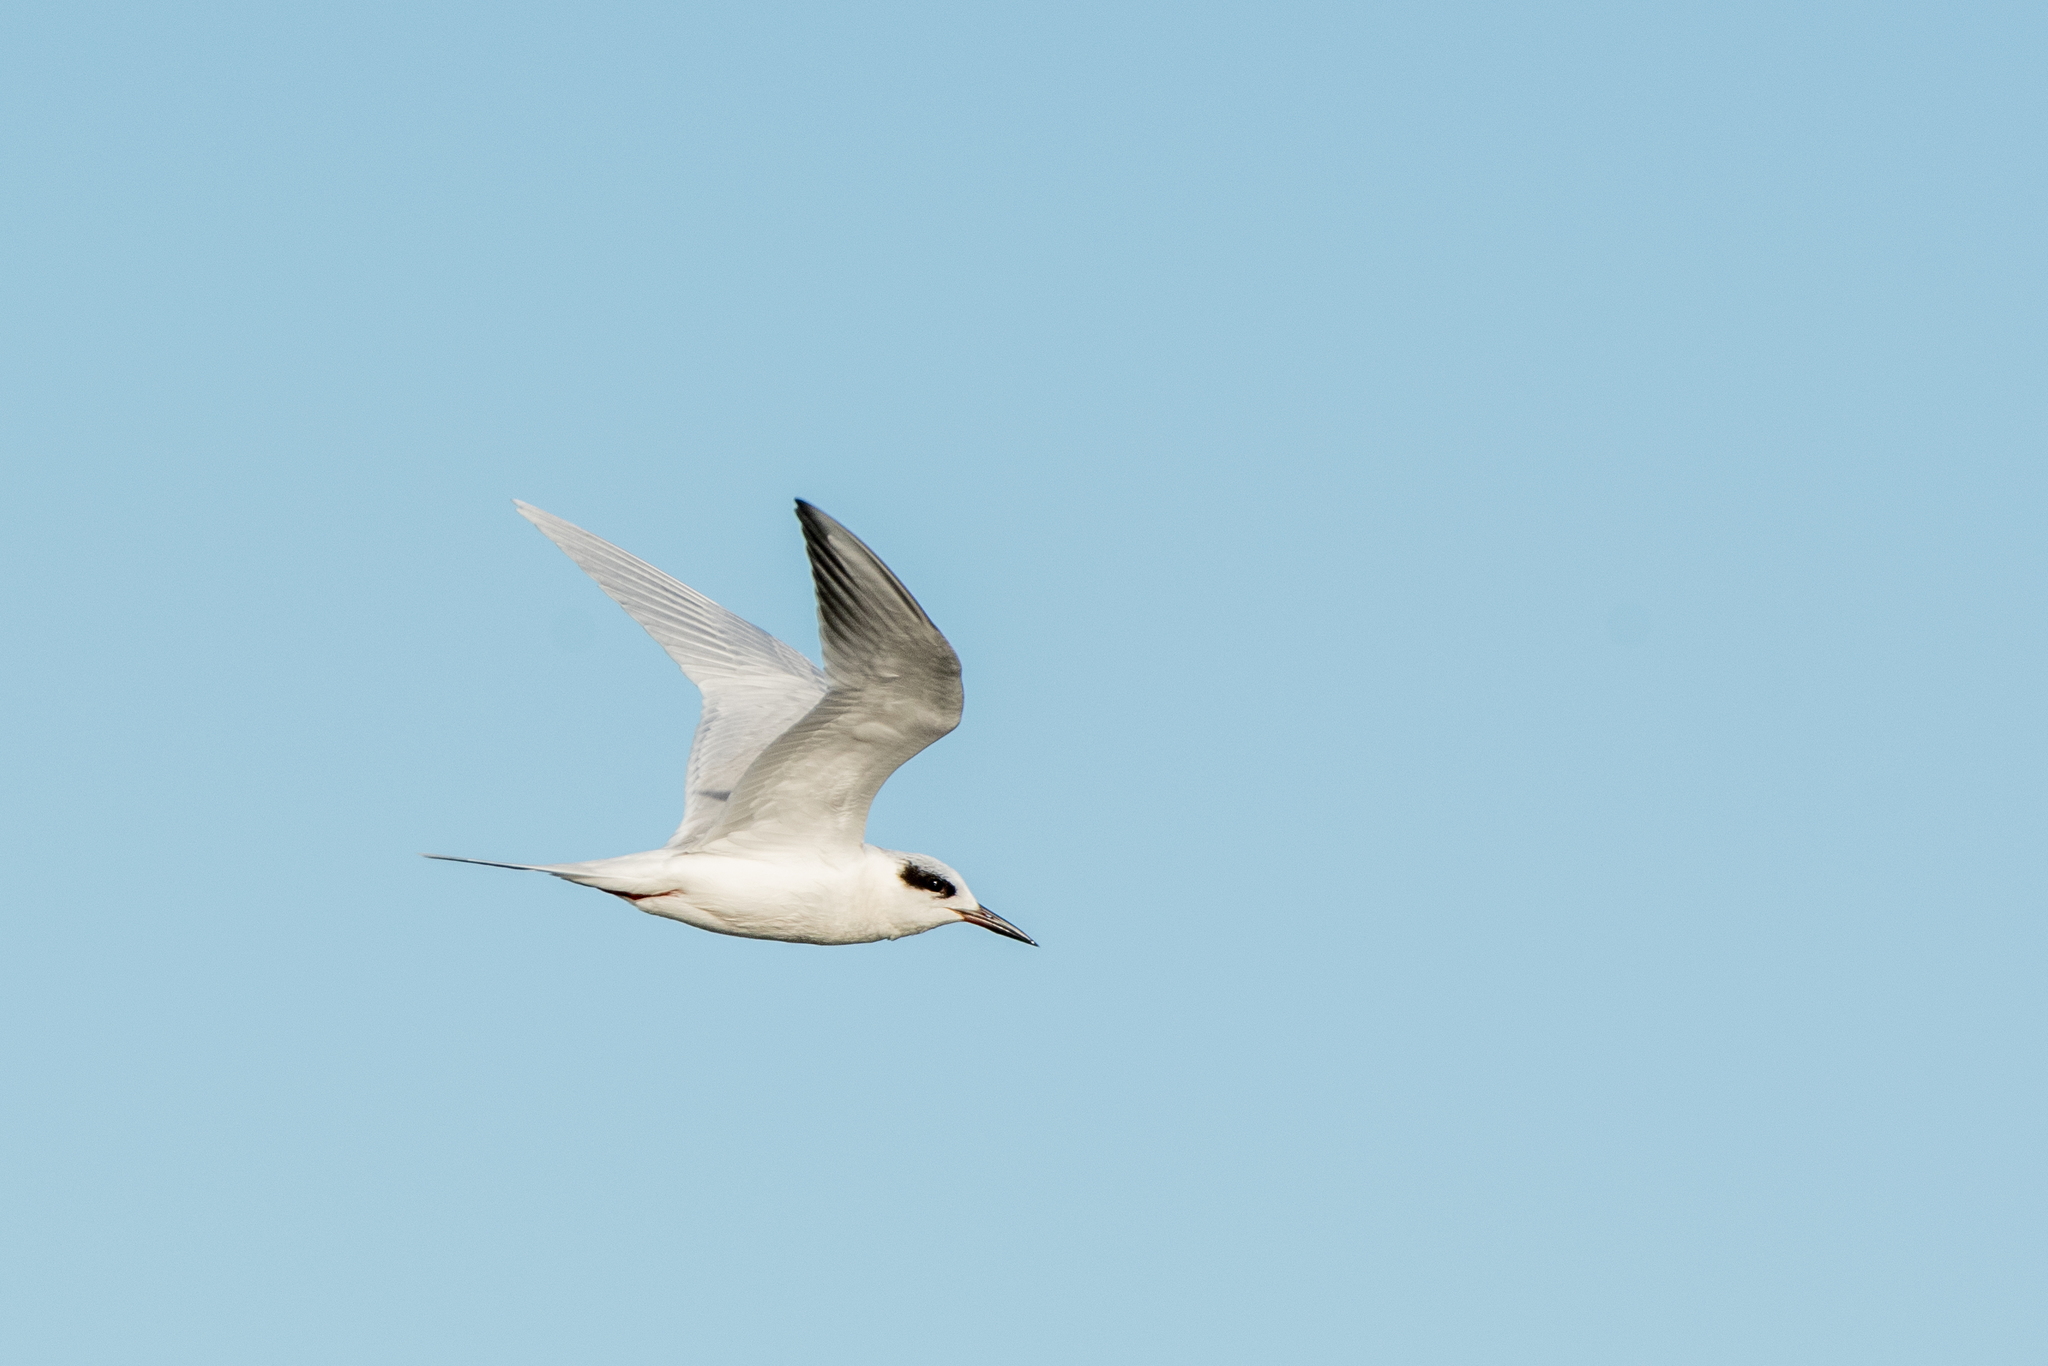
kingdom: Animalia
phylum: Chordata
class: Aves
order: Charadriiformes
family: Laridae
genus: Sterna
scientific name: Sterna forsteri
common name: Forster's tern
